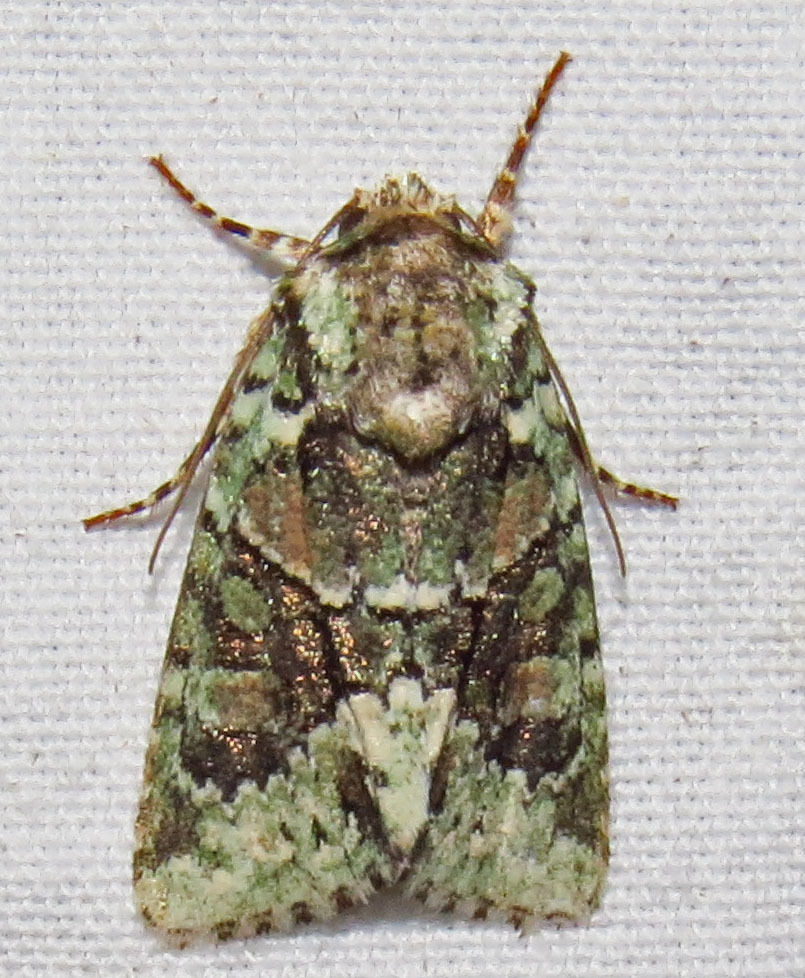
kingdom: Animalia
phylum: Arthropoda
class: Insecta
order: Lepidoptera
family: Noctuidae
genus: Lacinipolia
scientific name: Lacinipolia explicata
